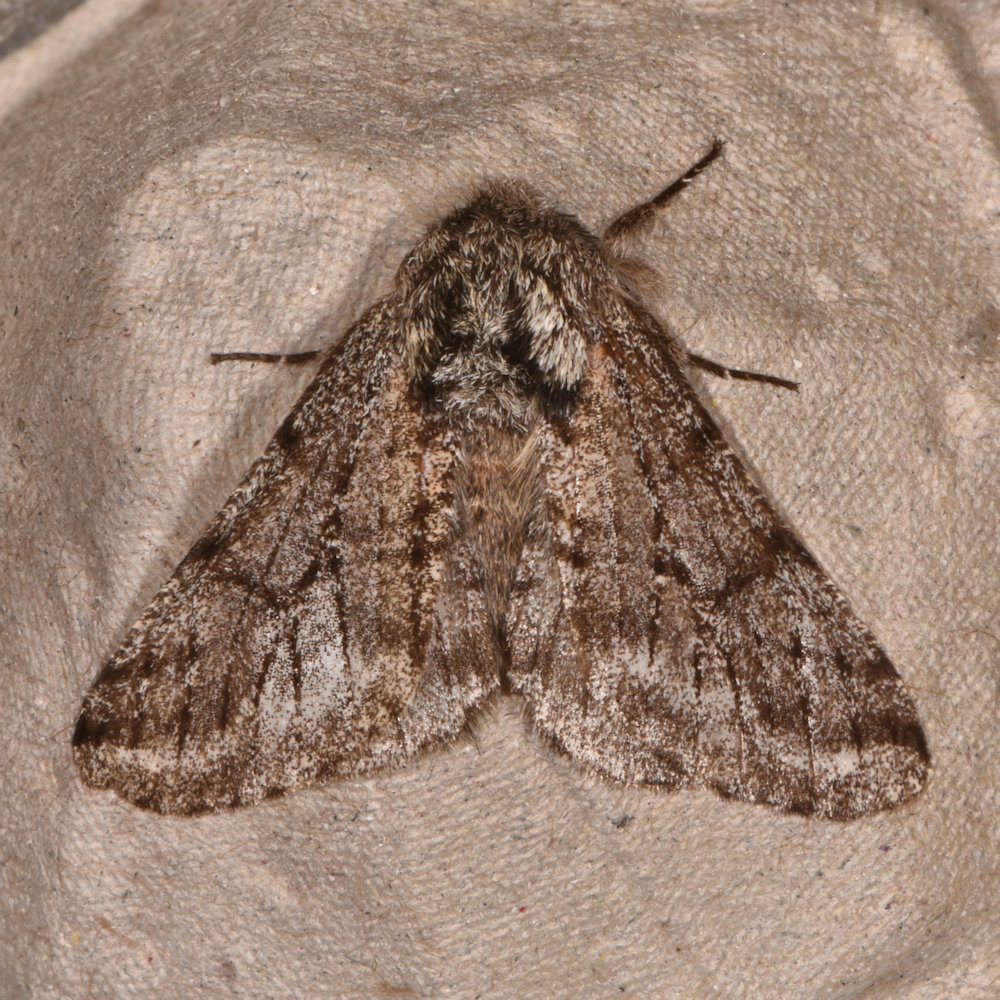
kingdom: Animalia
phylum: Arthropoda
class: Insecta
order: Lepidoptera
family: Geometridae
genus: Lycia
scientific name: Lycia ursaria
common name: Stout spanworm
